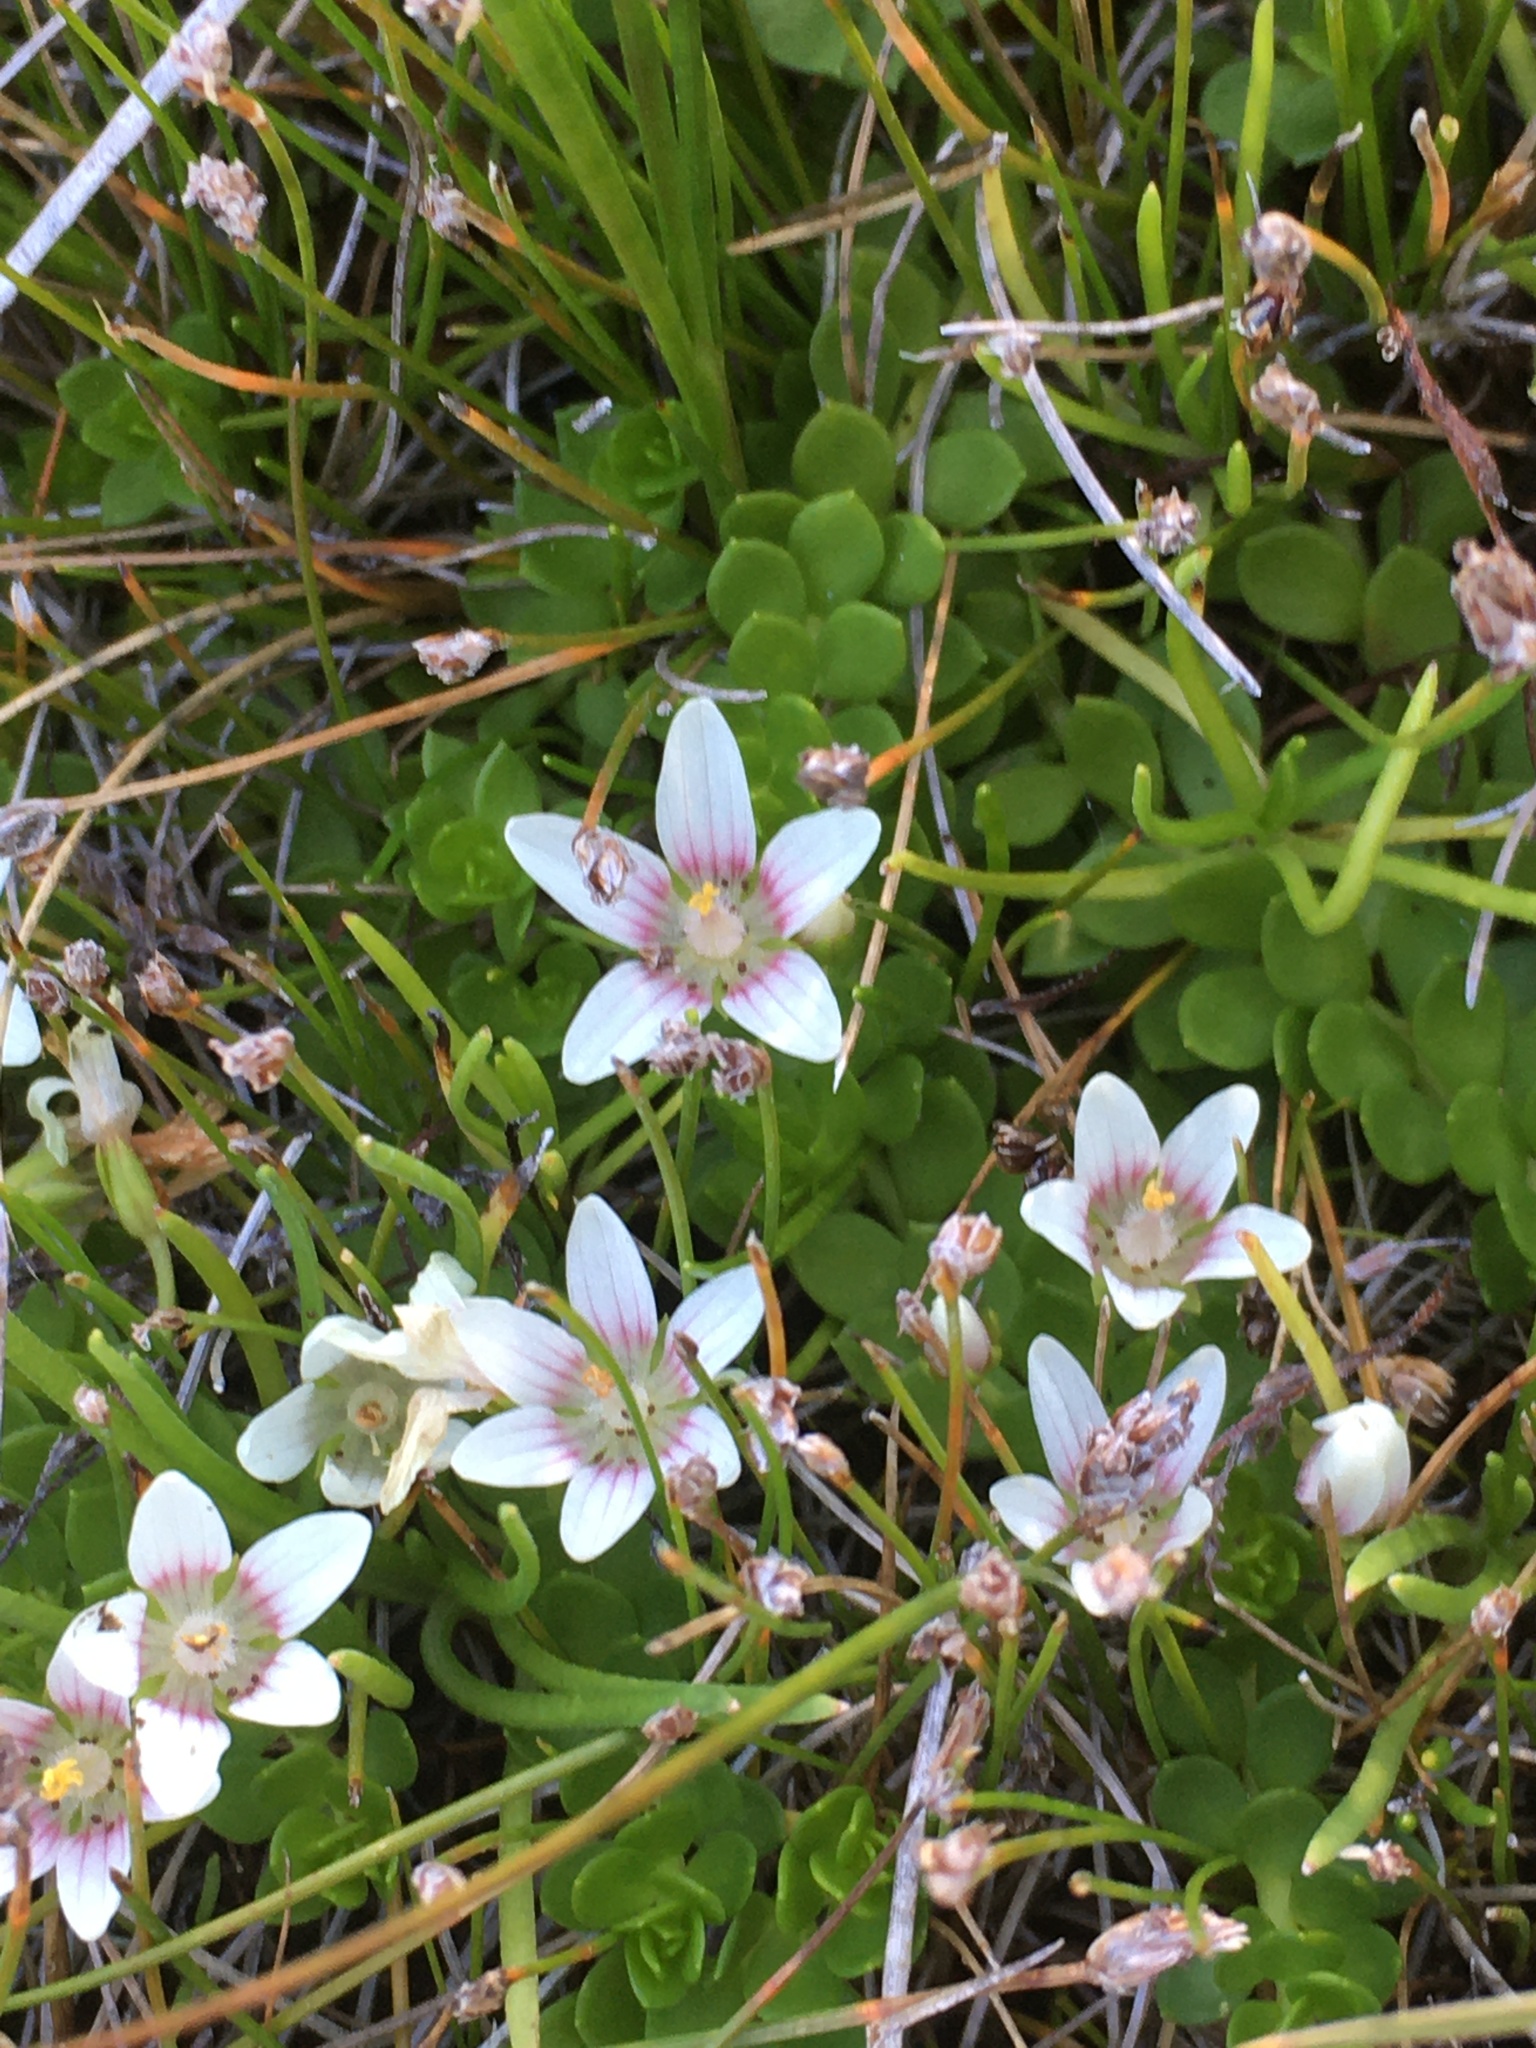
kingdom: Plantae
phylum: Tracheophyta
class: Magnoliopsida
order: Ericales
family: Primulaceae
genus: Lysimachia
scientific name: Lysimachia amoena
